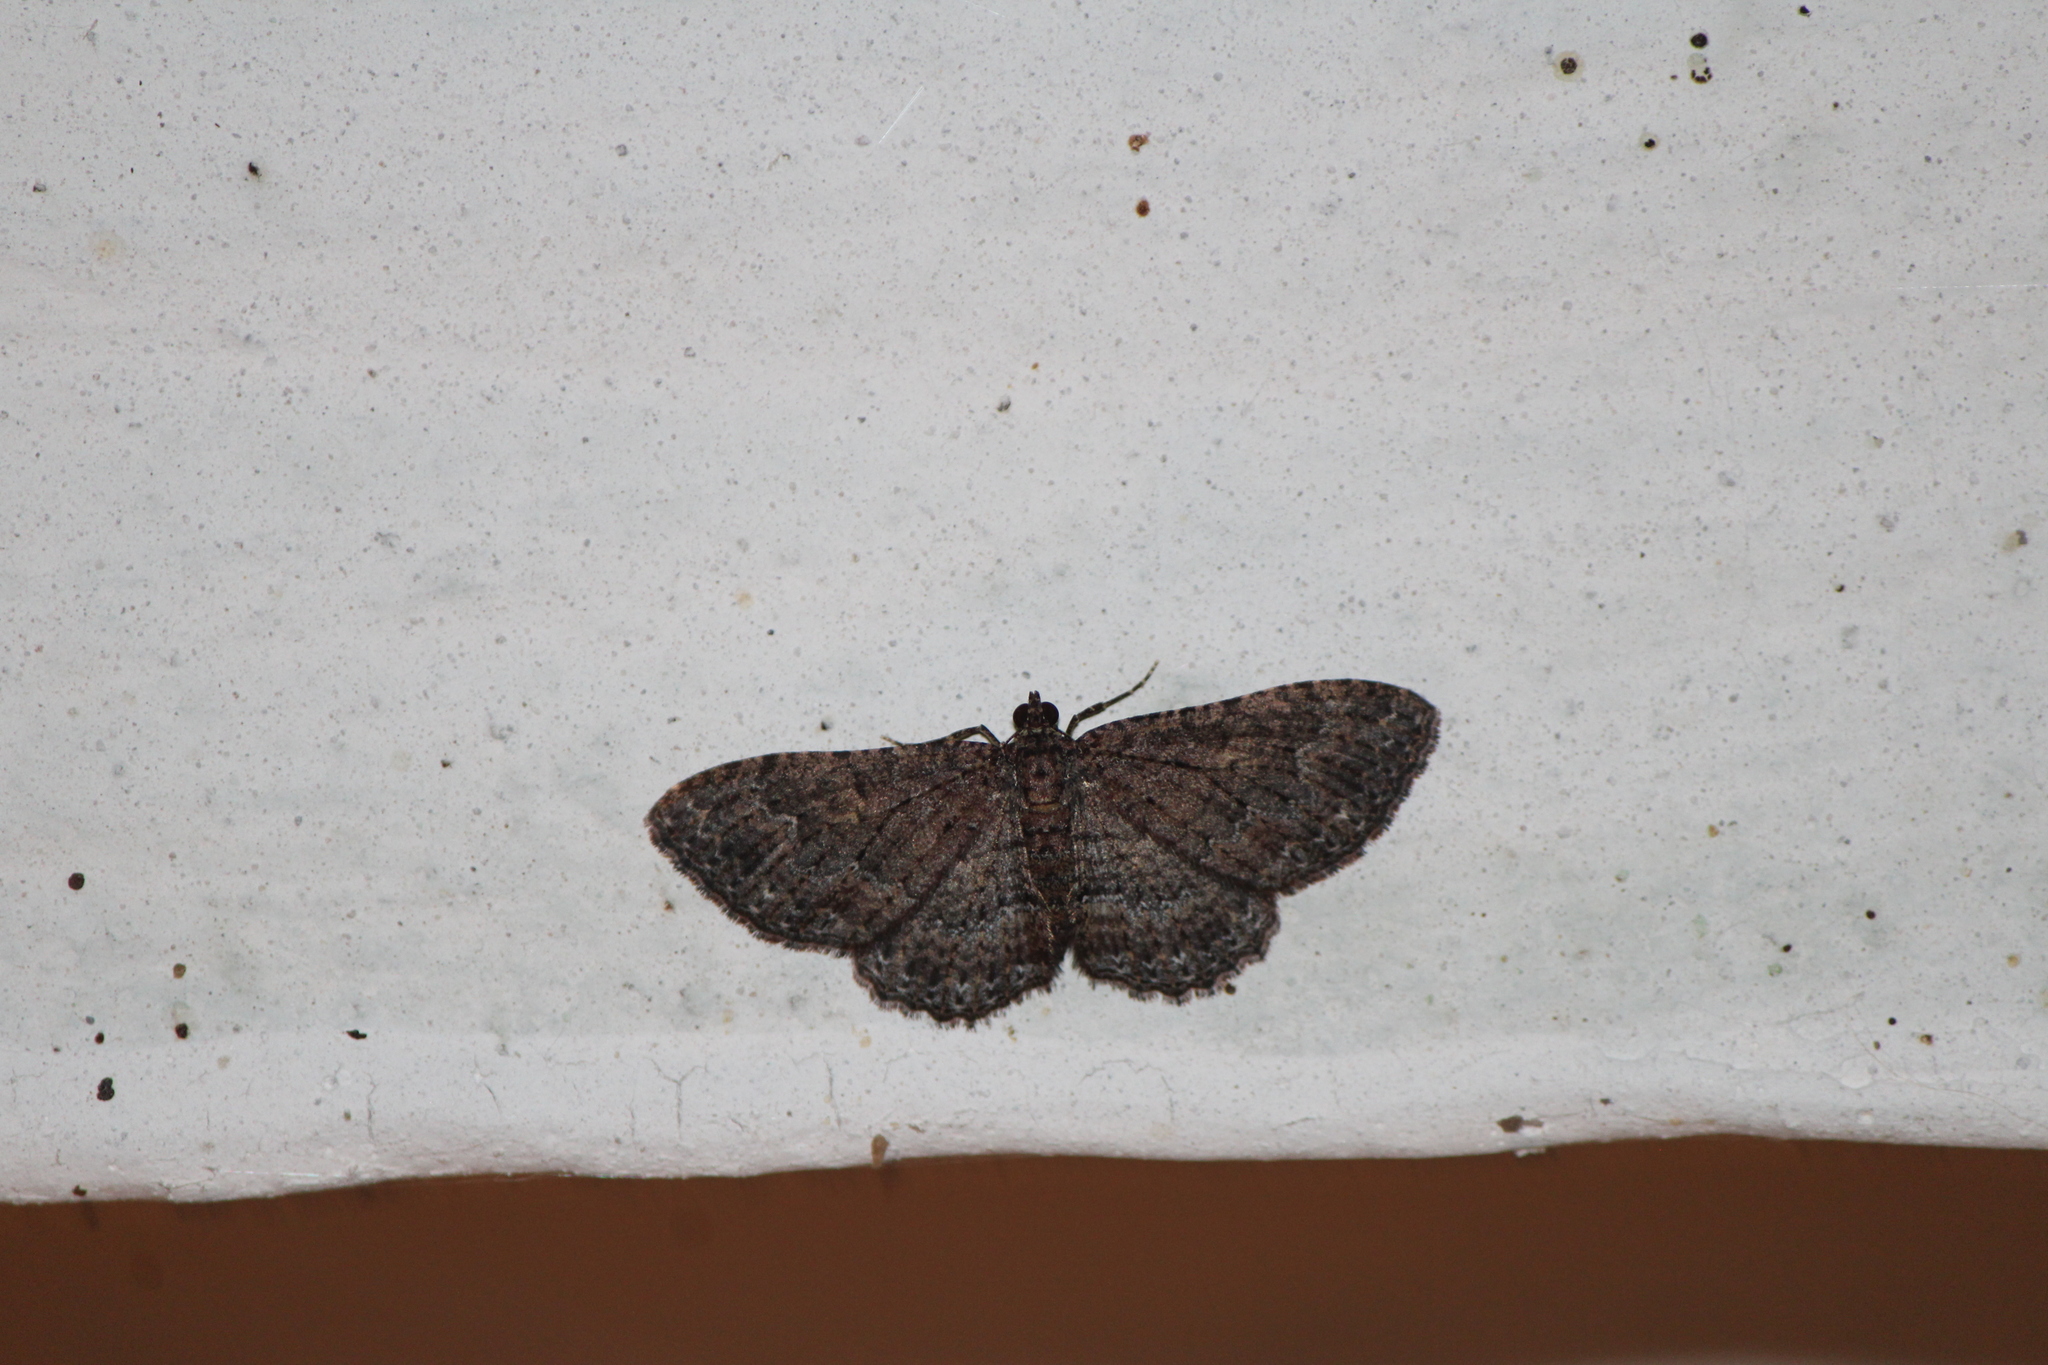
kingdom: Animalia
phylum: Arthropoda
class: Insecta
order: Lepidoptera
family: Geometridae
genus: Disclisioprocta
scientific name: Disclisioprocta stellata
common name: Somber carpet
